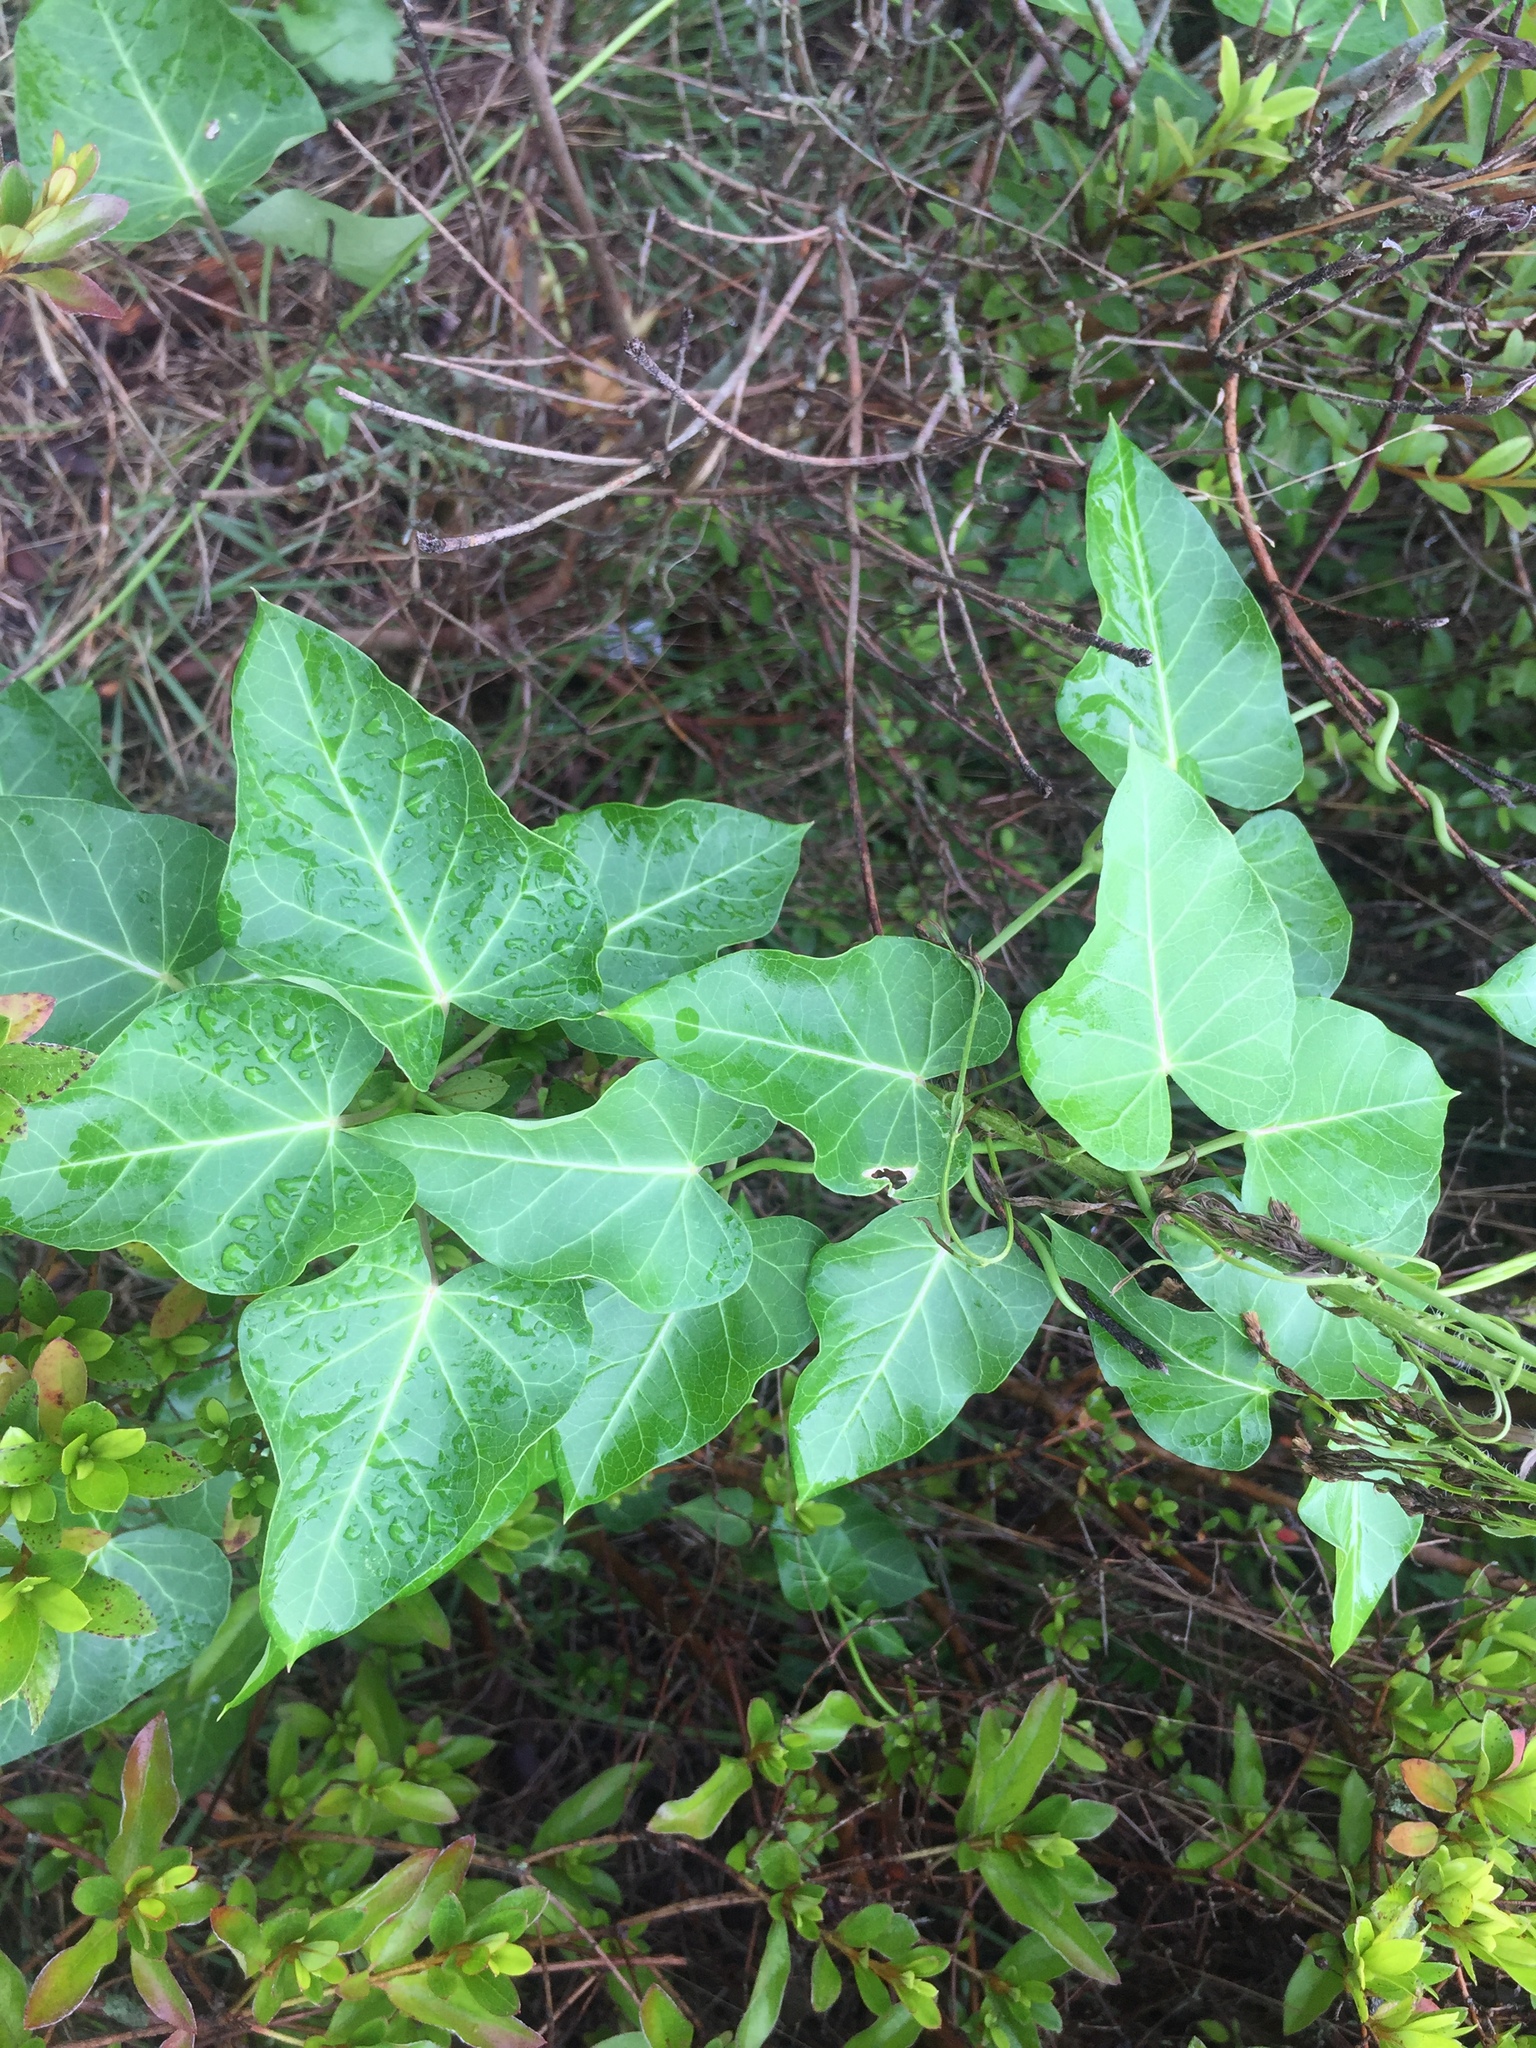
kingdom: Plantae
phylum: Tracheophyta
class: Magnoliopsida
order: Gentianales
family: Apocynaceae
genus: Cynanchum
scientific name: Cynanchum rostellatum
